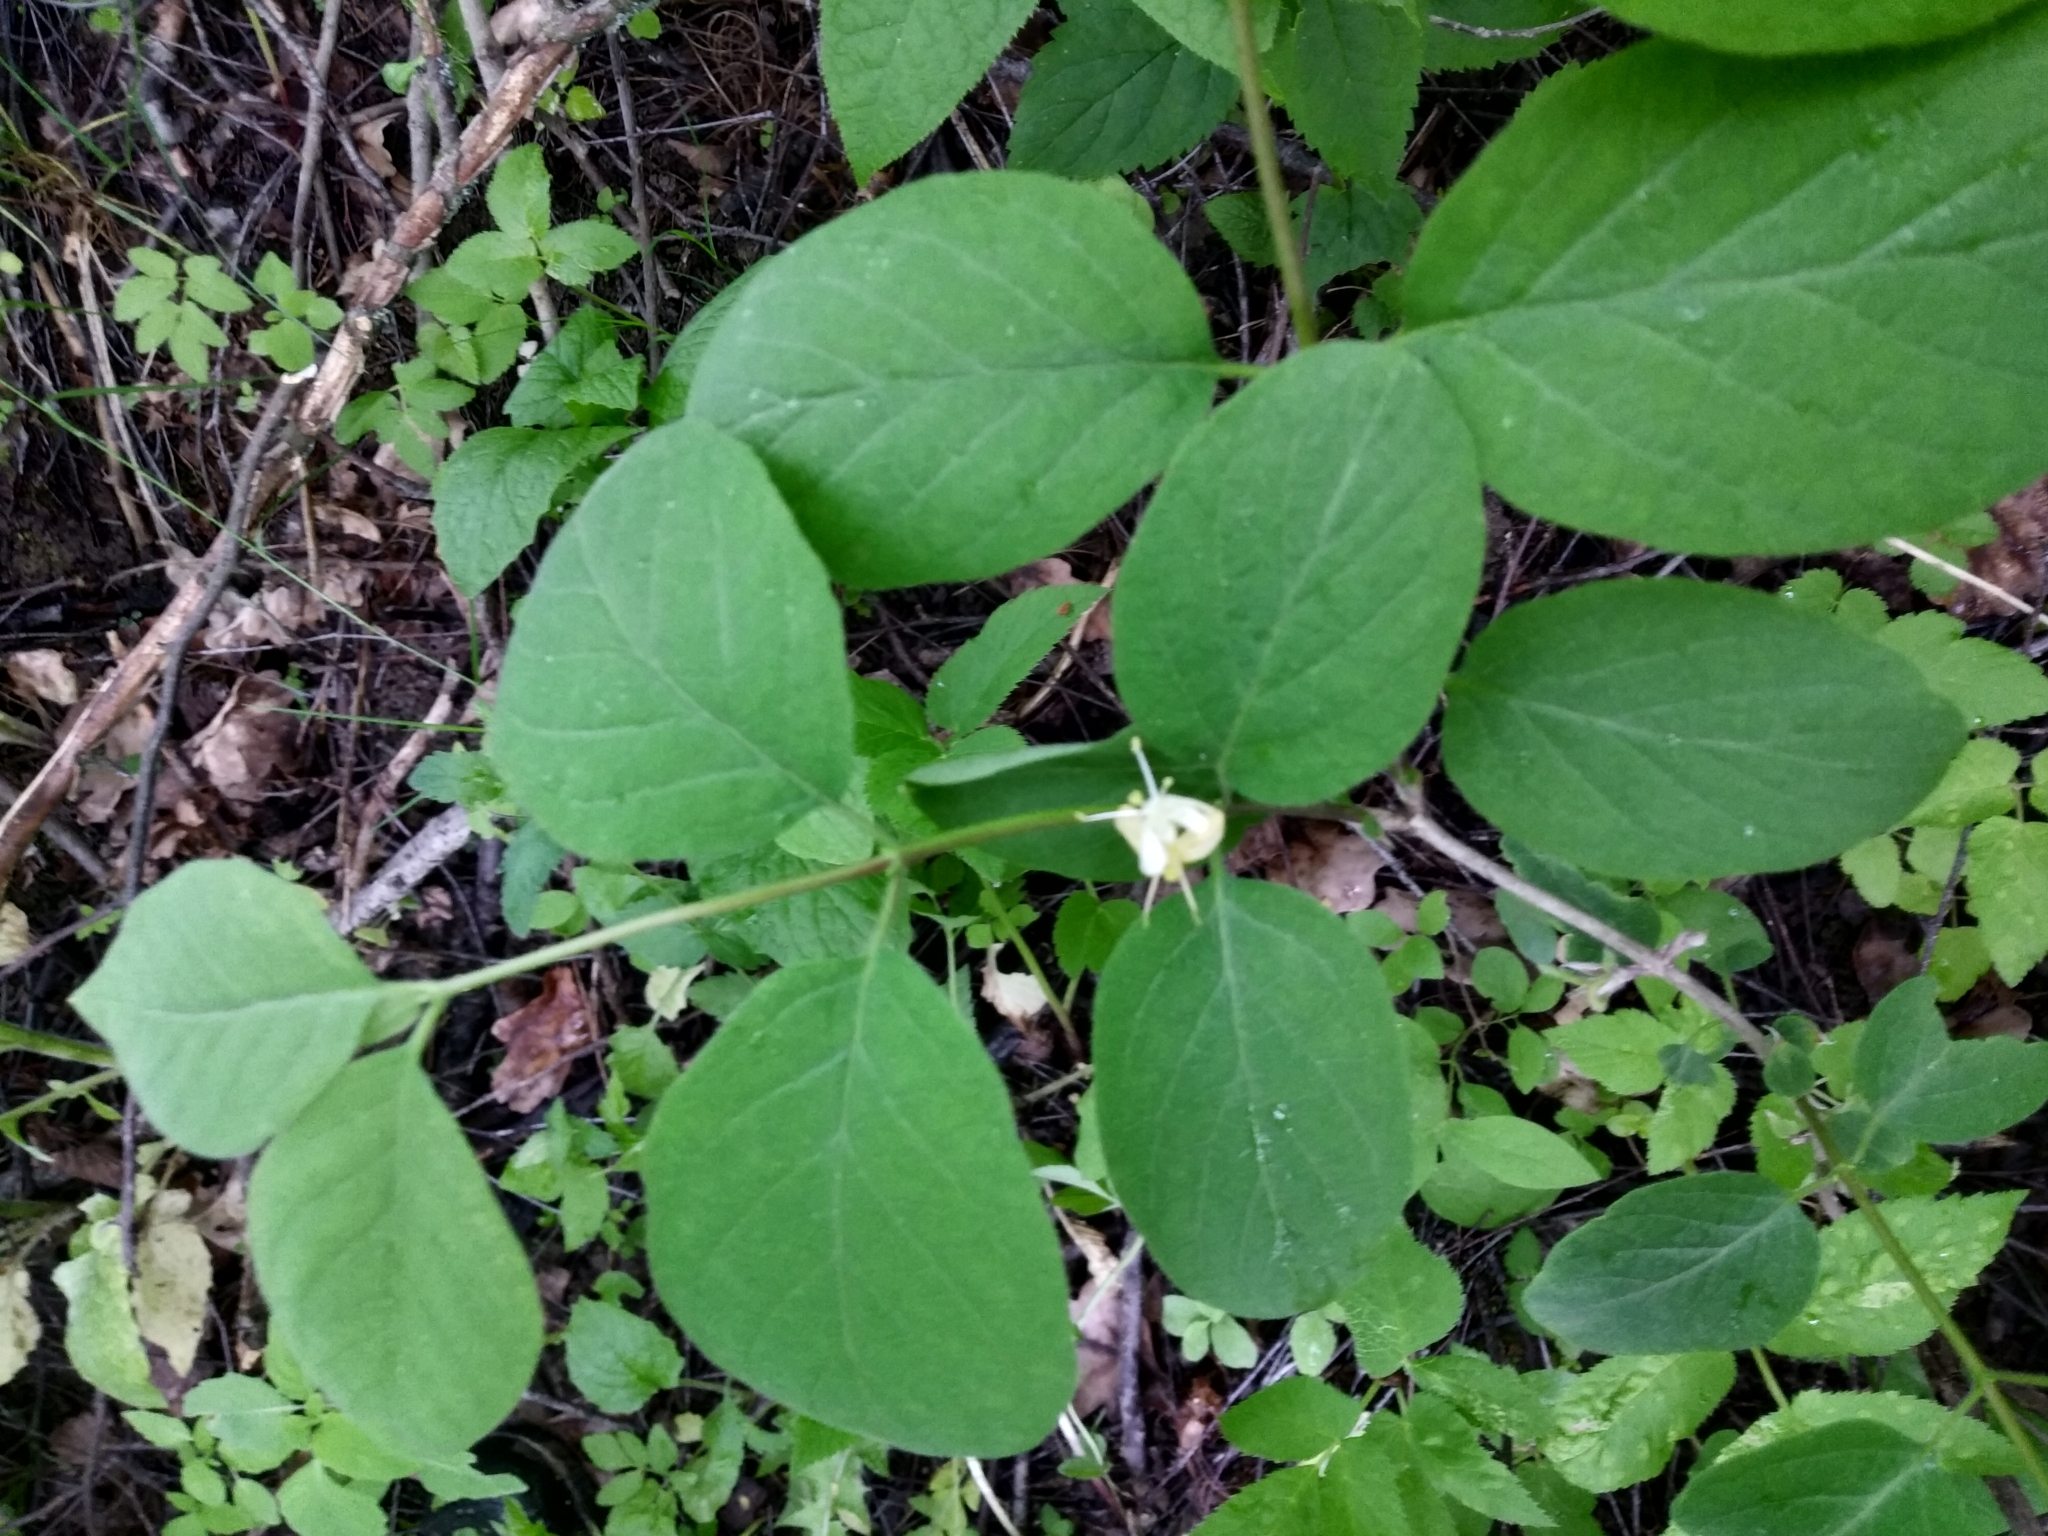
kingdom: Plantae
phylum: Tracheophyta
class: Magnoliopsida
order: Dipsacales
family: Caprifoliaceae
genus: Lonicera
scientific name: Lonicera xylosteum
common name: Fly honeysuckle
